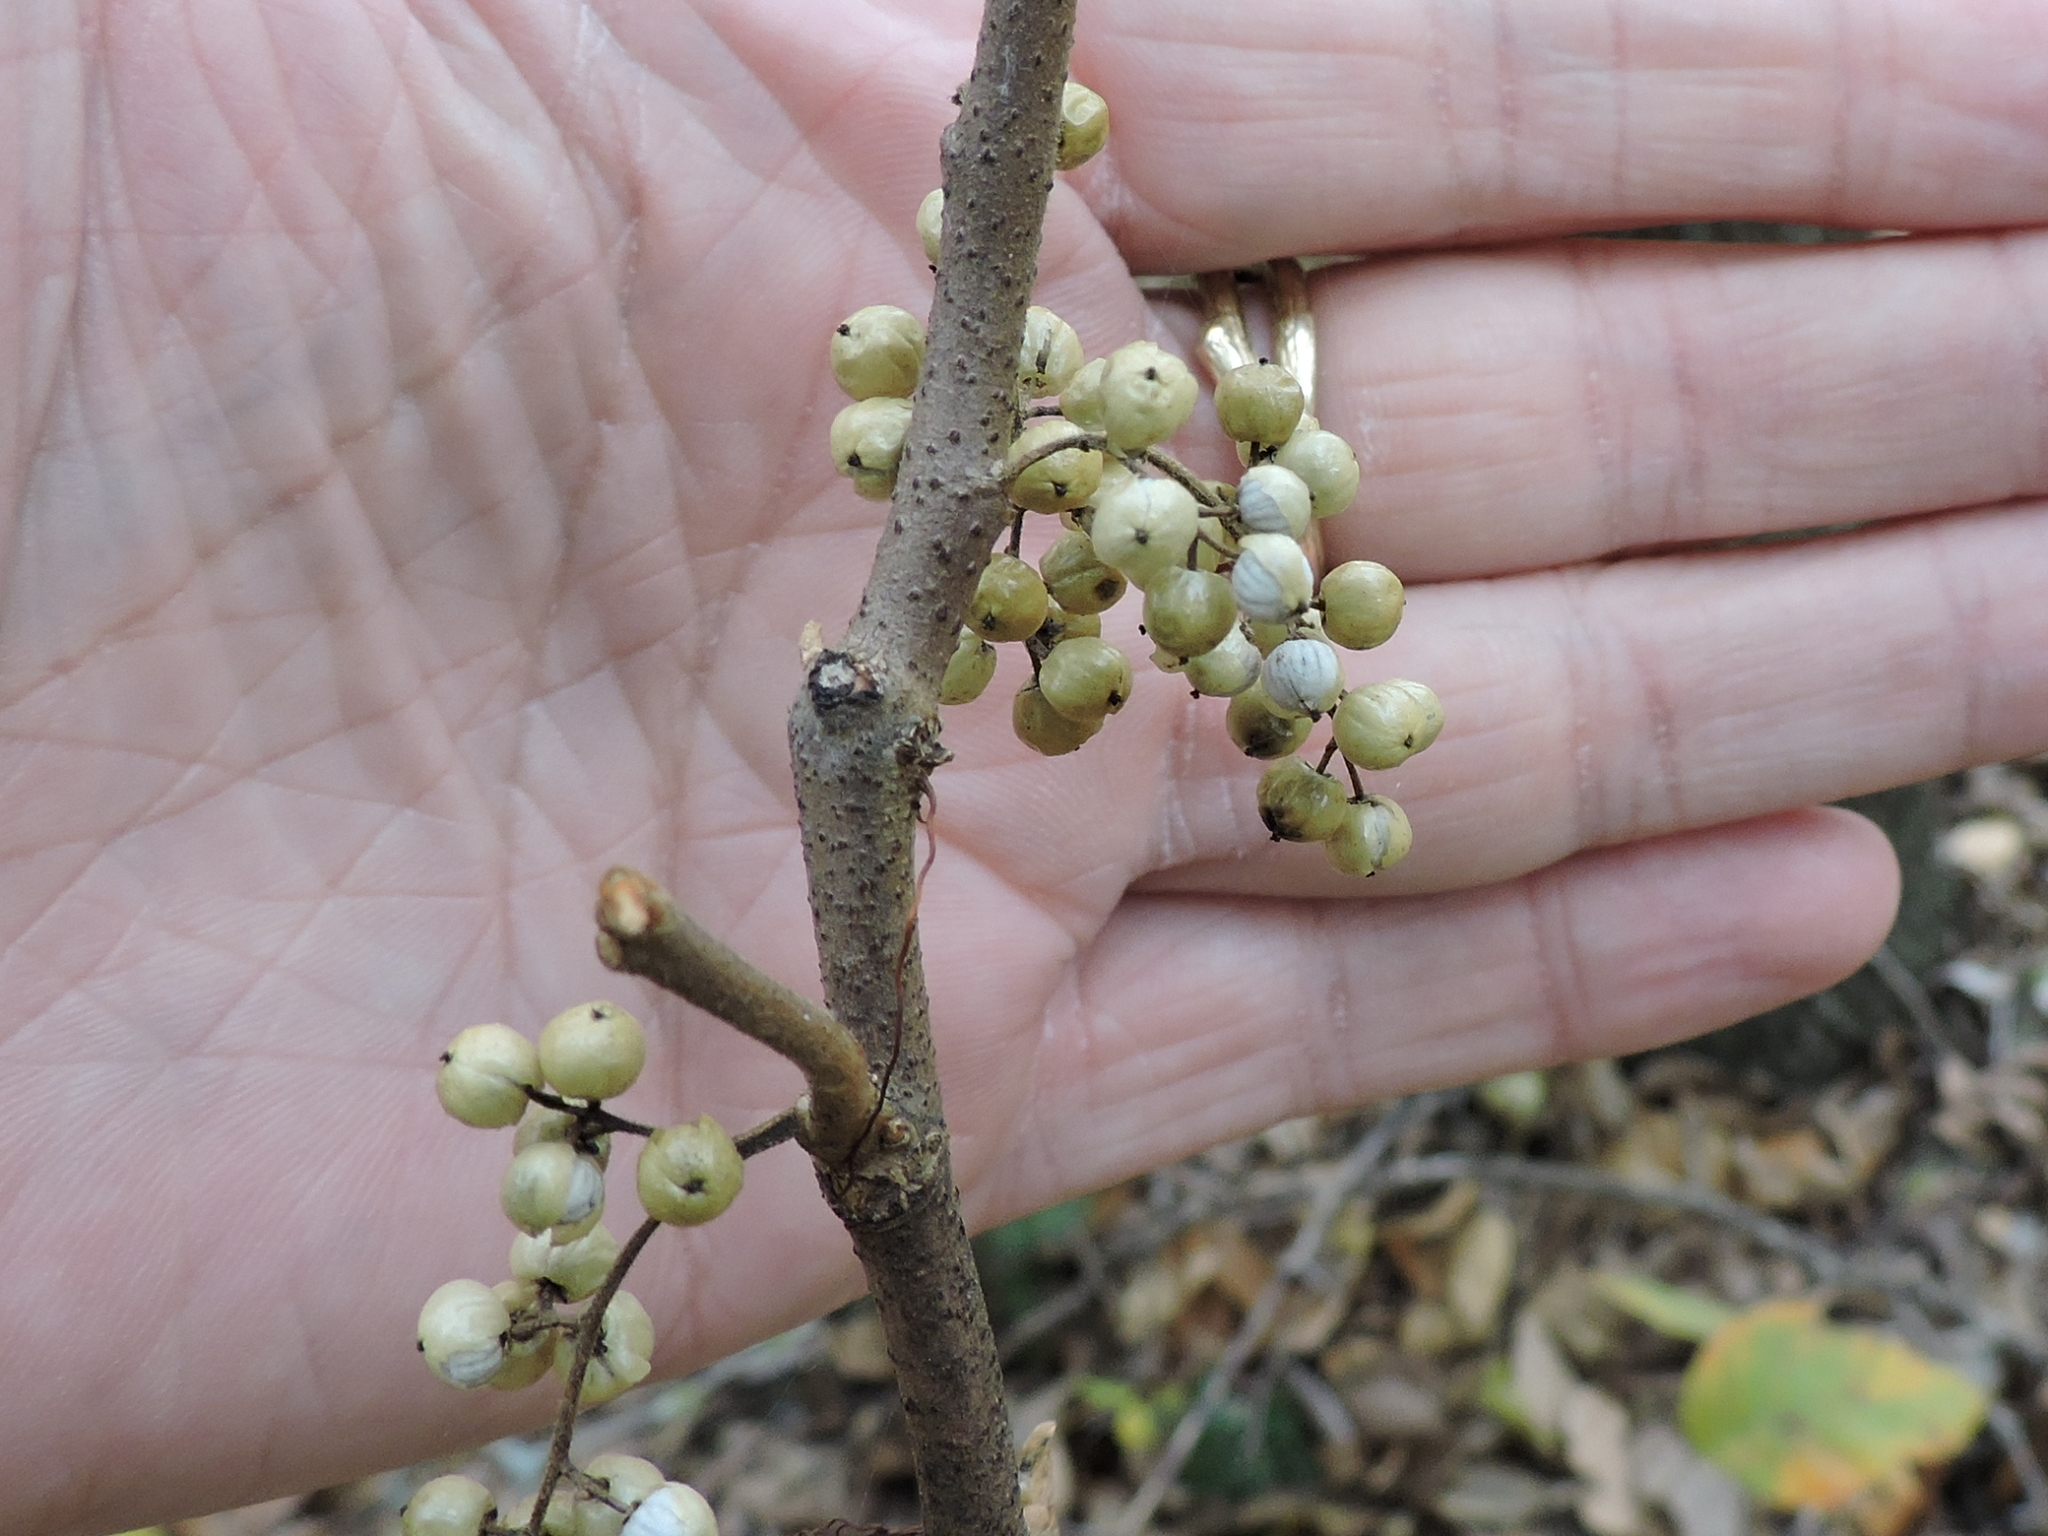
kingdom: Plantae
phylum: Tracheophyta
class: Magnoliopsida
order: Sapindales
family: Anacardiaceae
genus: Toxicodendron
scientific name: Toxicodendron radicans
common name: Poison ivy
